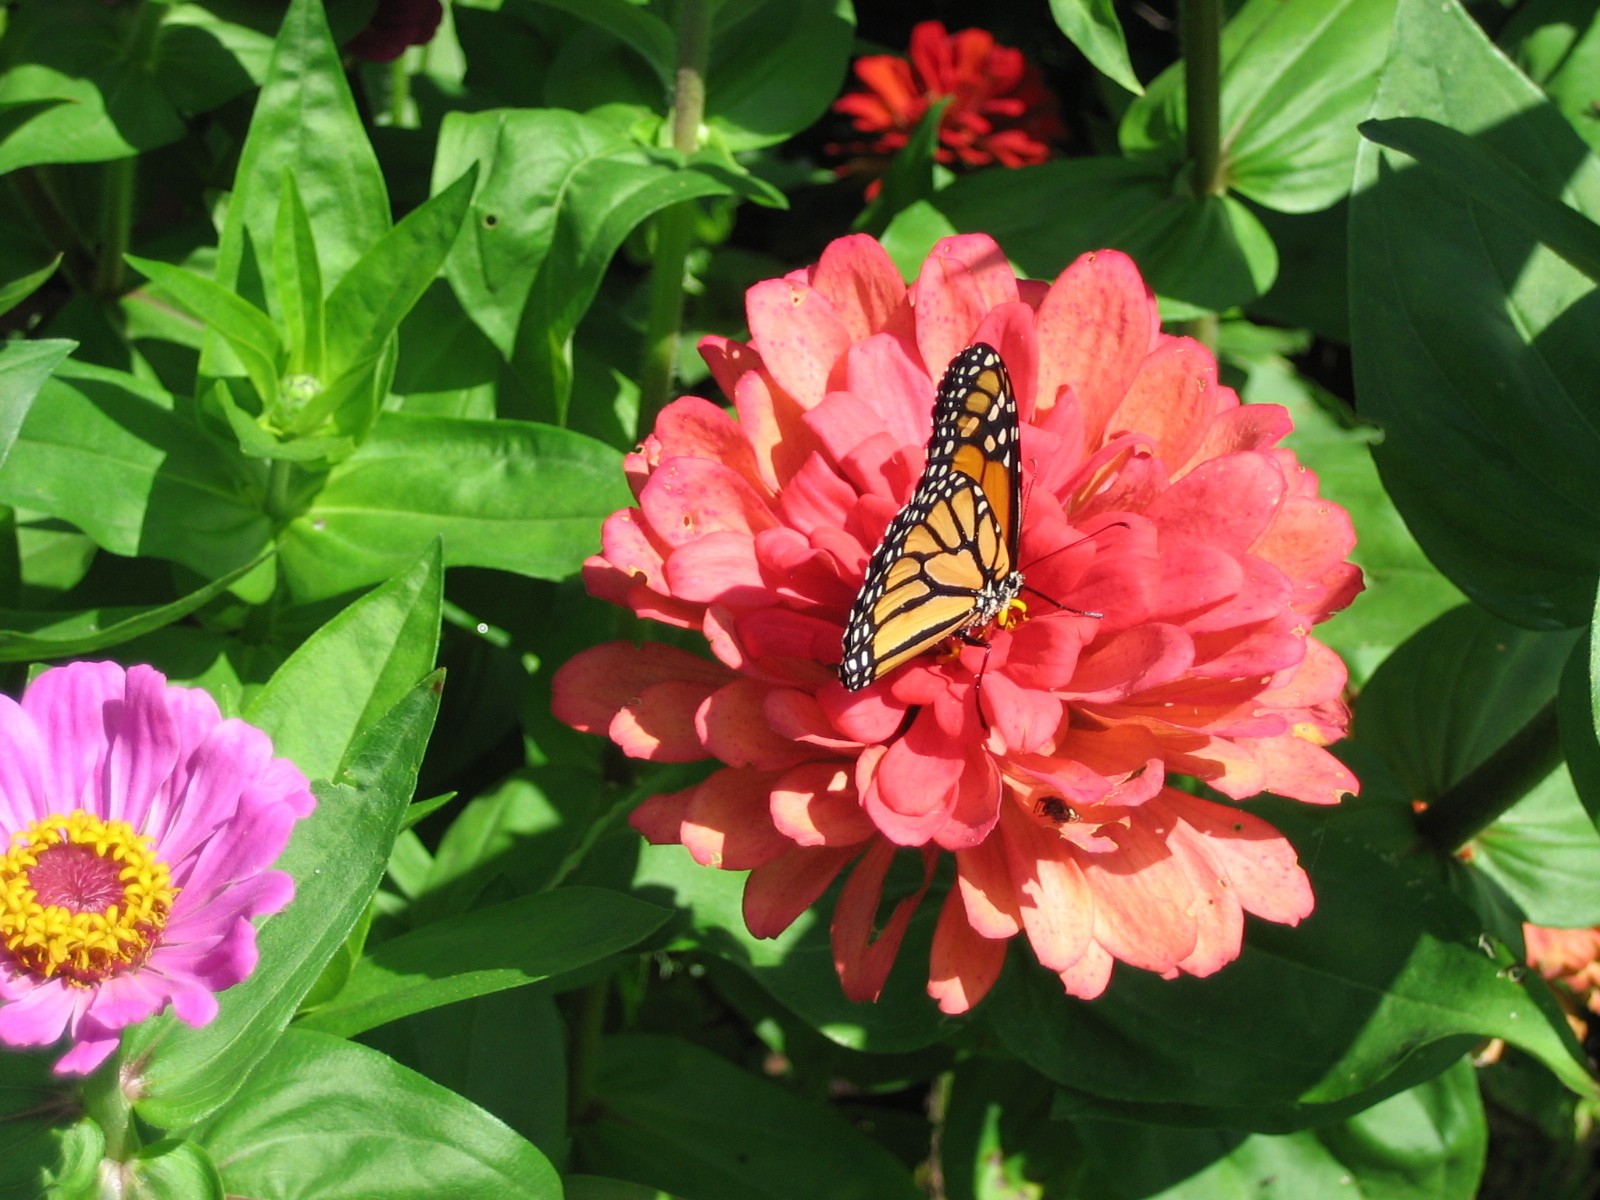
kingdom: Animalia
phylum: Arthropoda
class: Insecta
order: Lepidoptera
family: Nymphalidae
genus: Danaus
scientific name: Danaus plexippus
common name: Monarch
